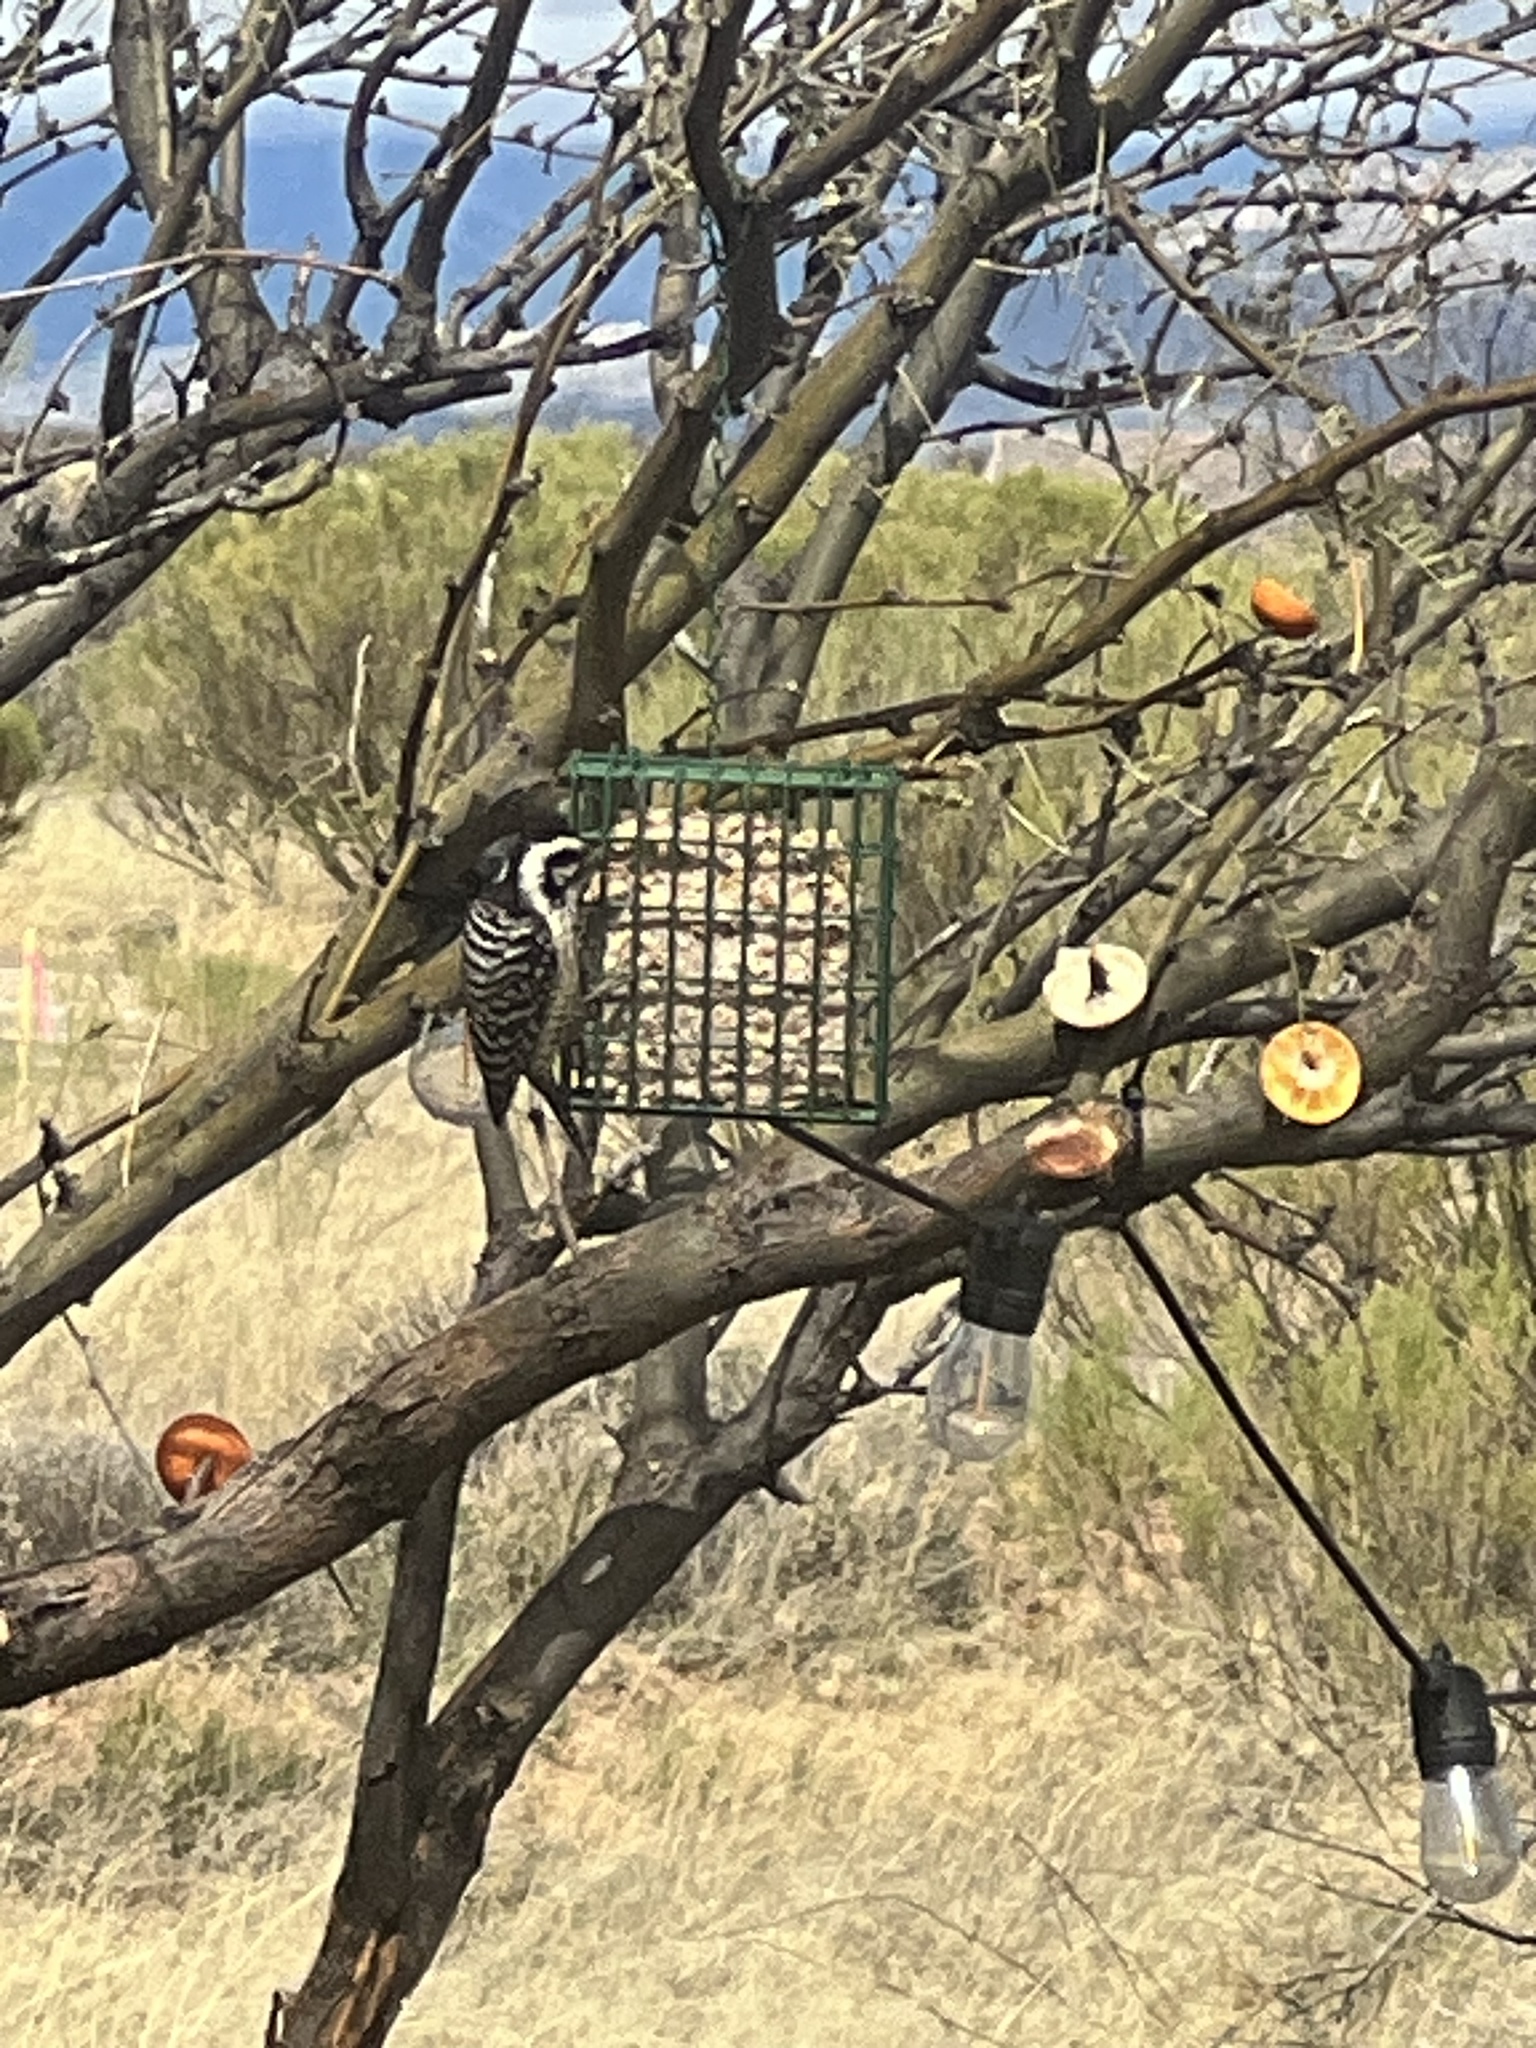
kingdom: Animalia
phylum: Chordata
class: Aves
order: Piciformes
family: Picidae
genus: Dryobates
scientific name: Dryobates scalaris
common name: Ladder-backed woodpecker
